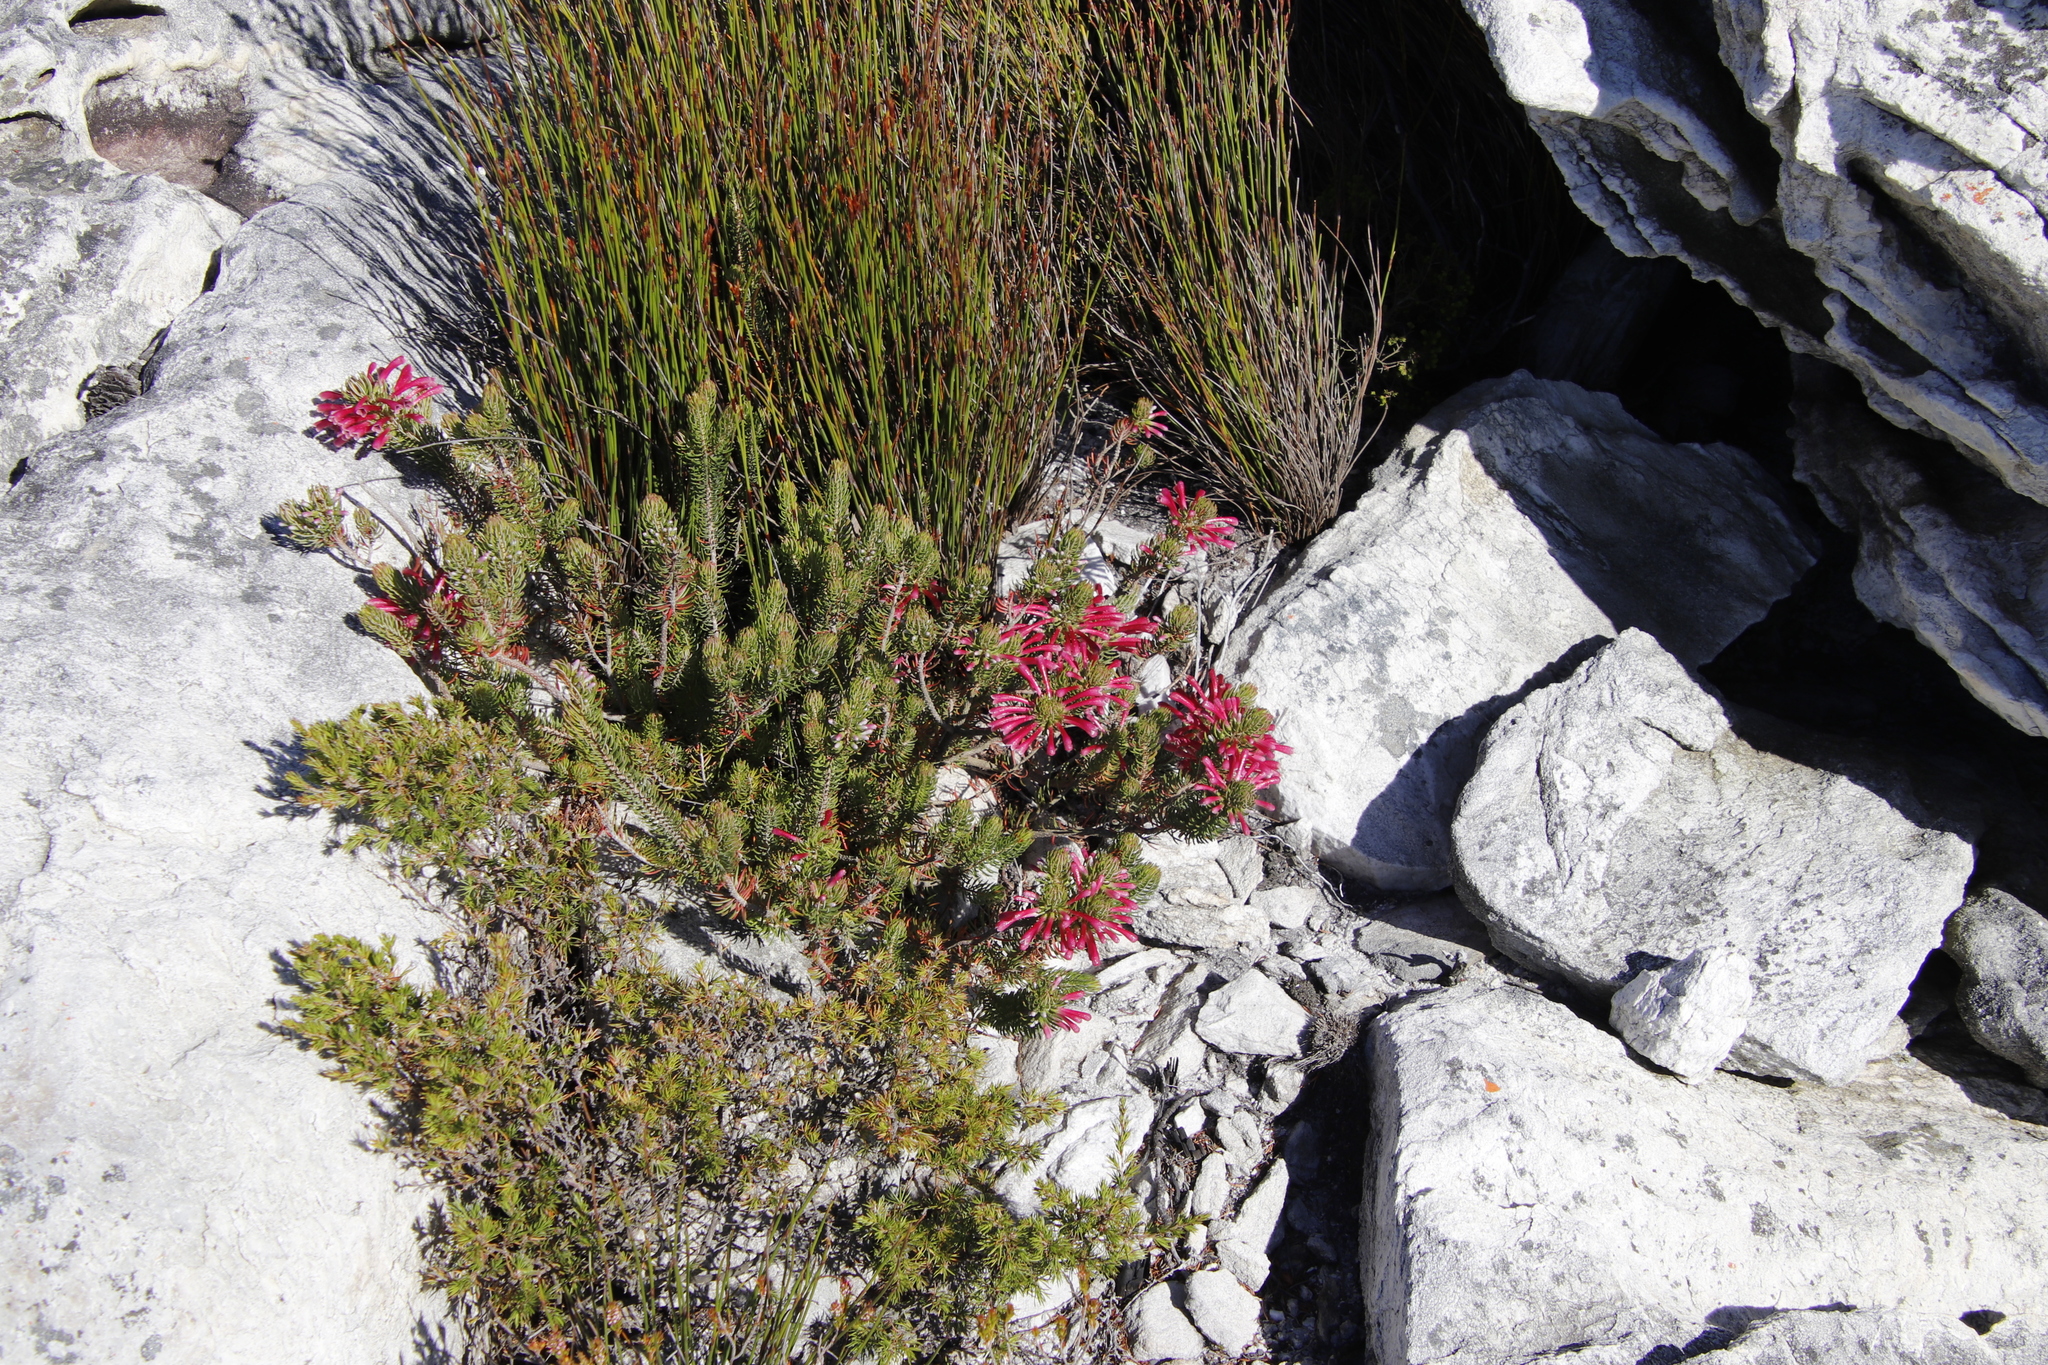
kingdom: Plantae
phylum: Tracheophyta
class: Magnoliopsida
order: Ericales
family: Ericaceae
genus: Erica
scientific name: Erica thomae
